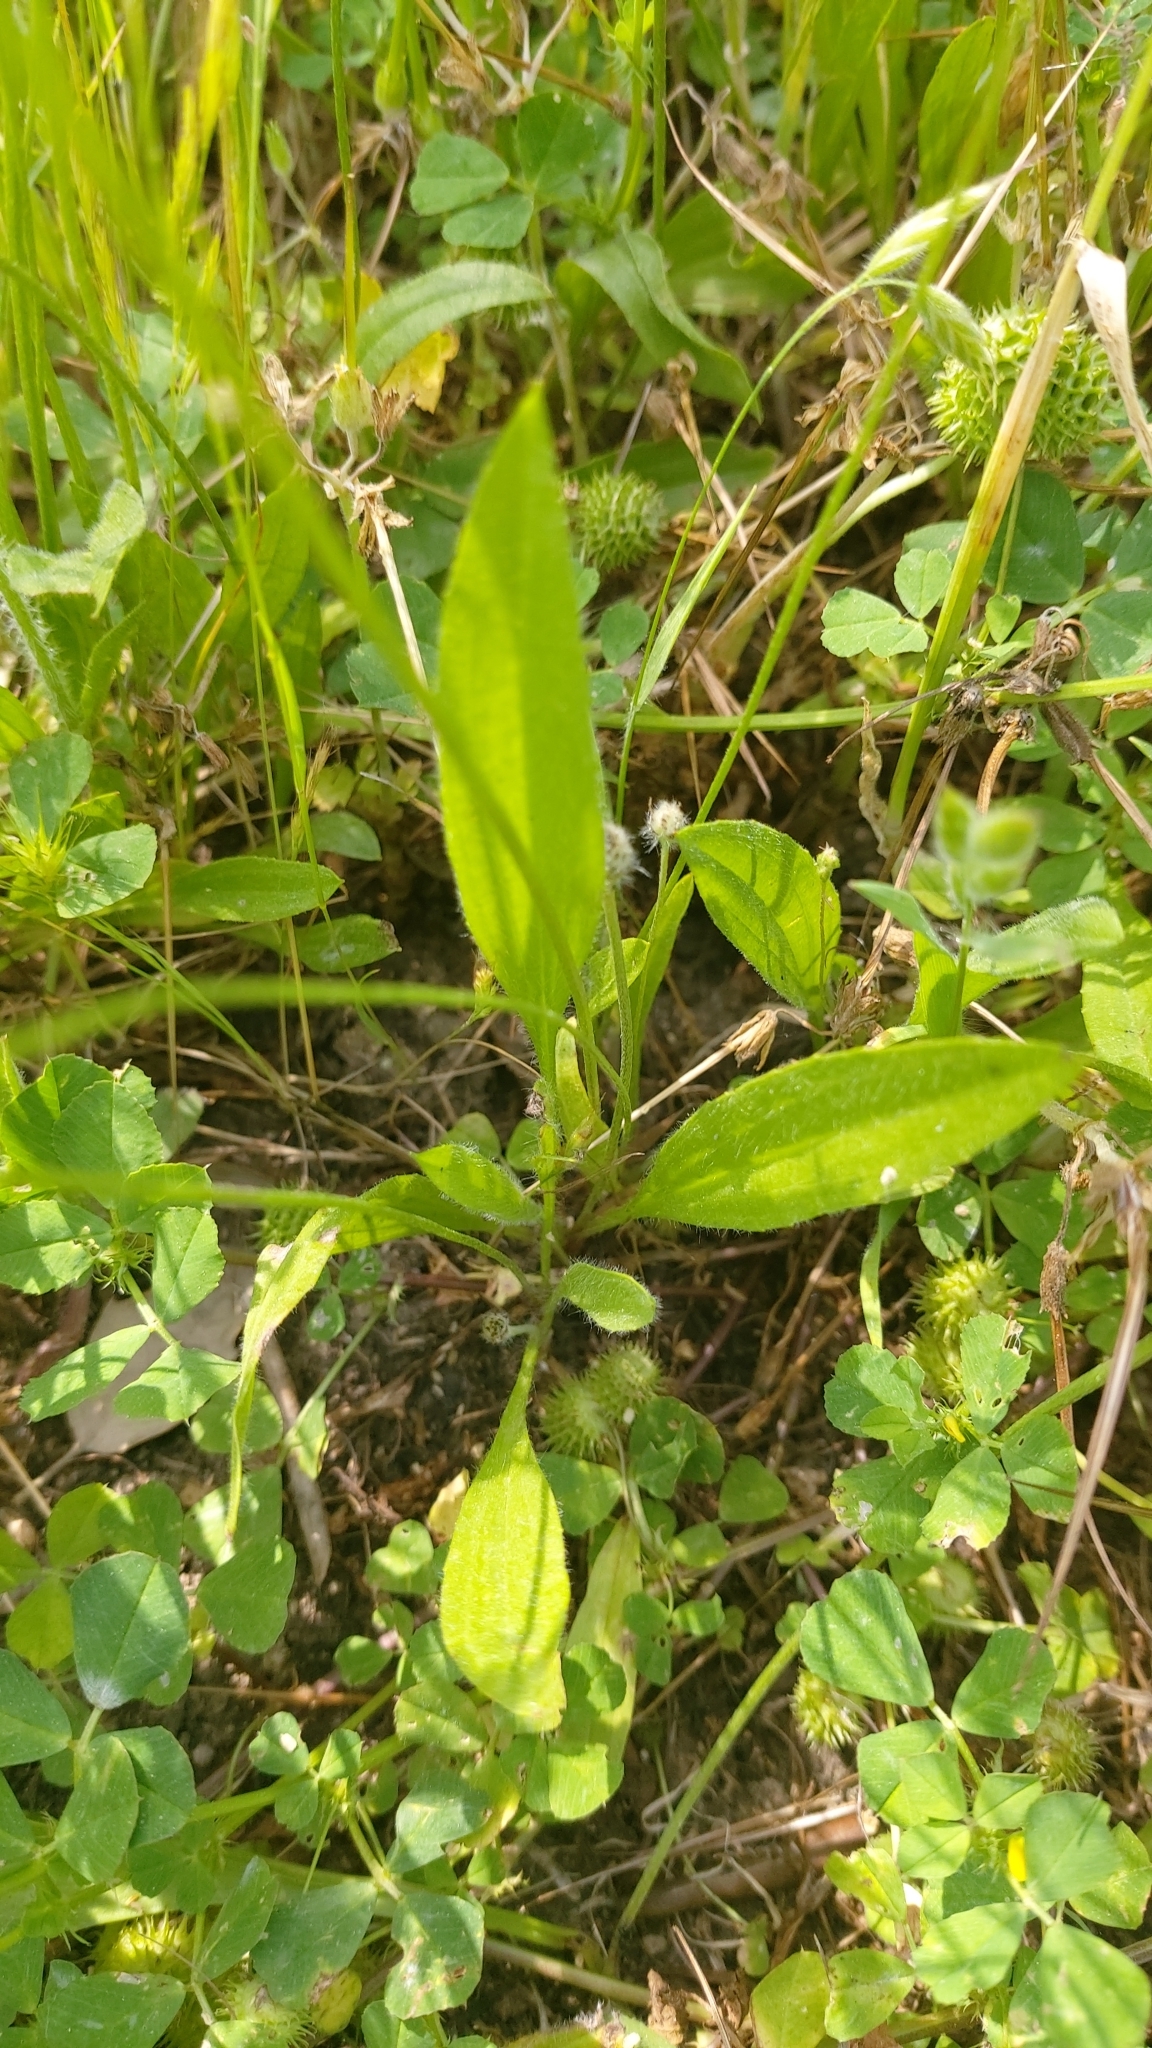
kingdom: Plantae
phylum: Tracheophyta
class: Magnoliopsida
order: Lamiales
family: Plantaginaceae
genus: Plantago
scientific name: Plantago lagopus
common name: Hare-foot plantain
